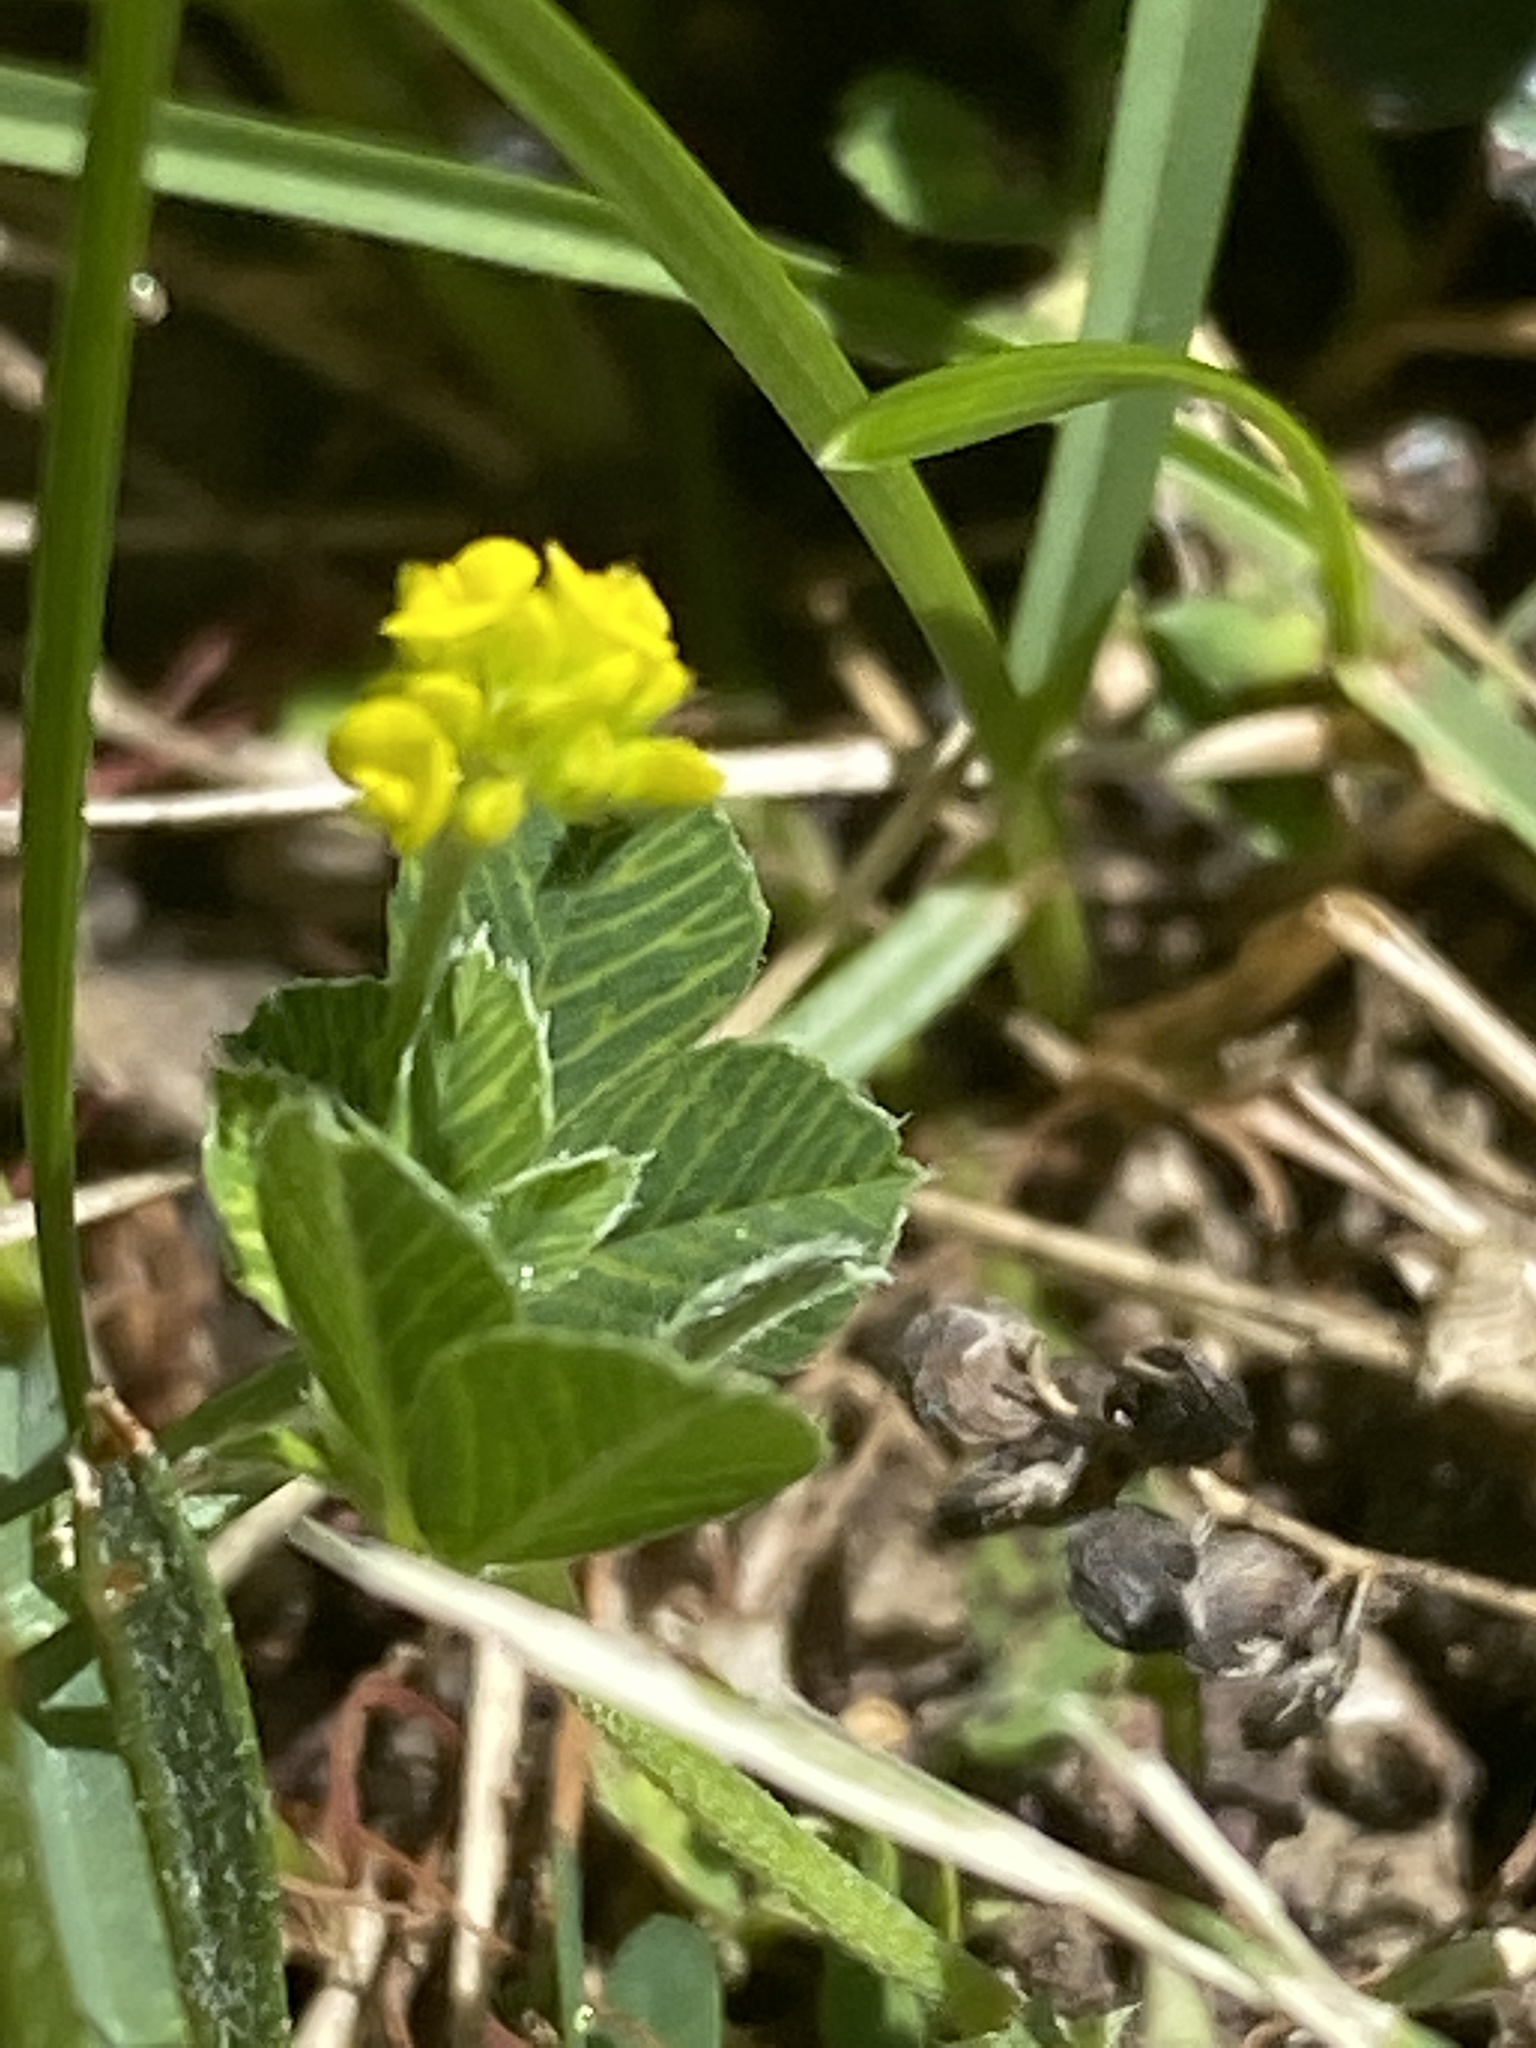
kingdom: Plantae
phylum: Tracheophyta
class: Magnoliopsida
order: Fabales
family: Fabaceae
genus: Medicago
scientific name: Medicago lupulina
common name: Black medick
